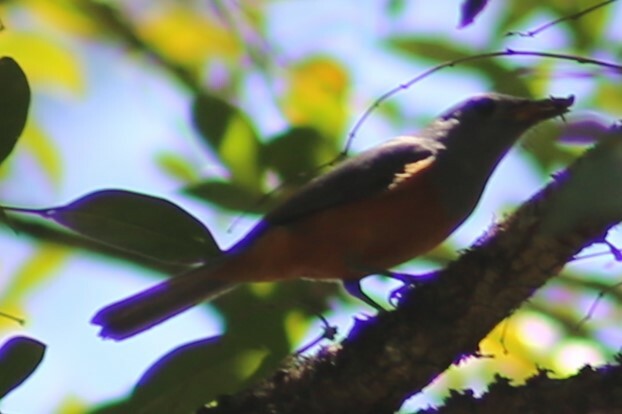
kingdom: Animalia
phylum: Chordata
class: Aves
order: Passeriformes
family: Monarchidae
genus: Monarcha
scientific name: Monarcha melanopsis
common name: Black-faced monarch
